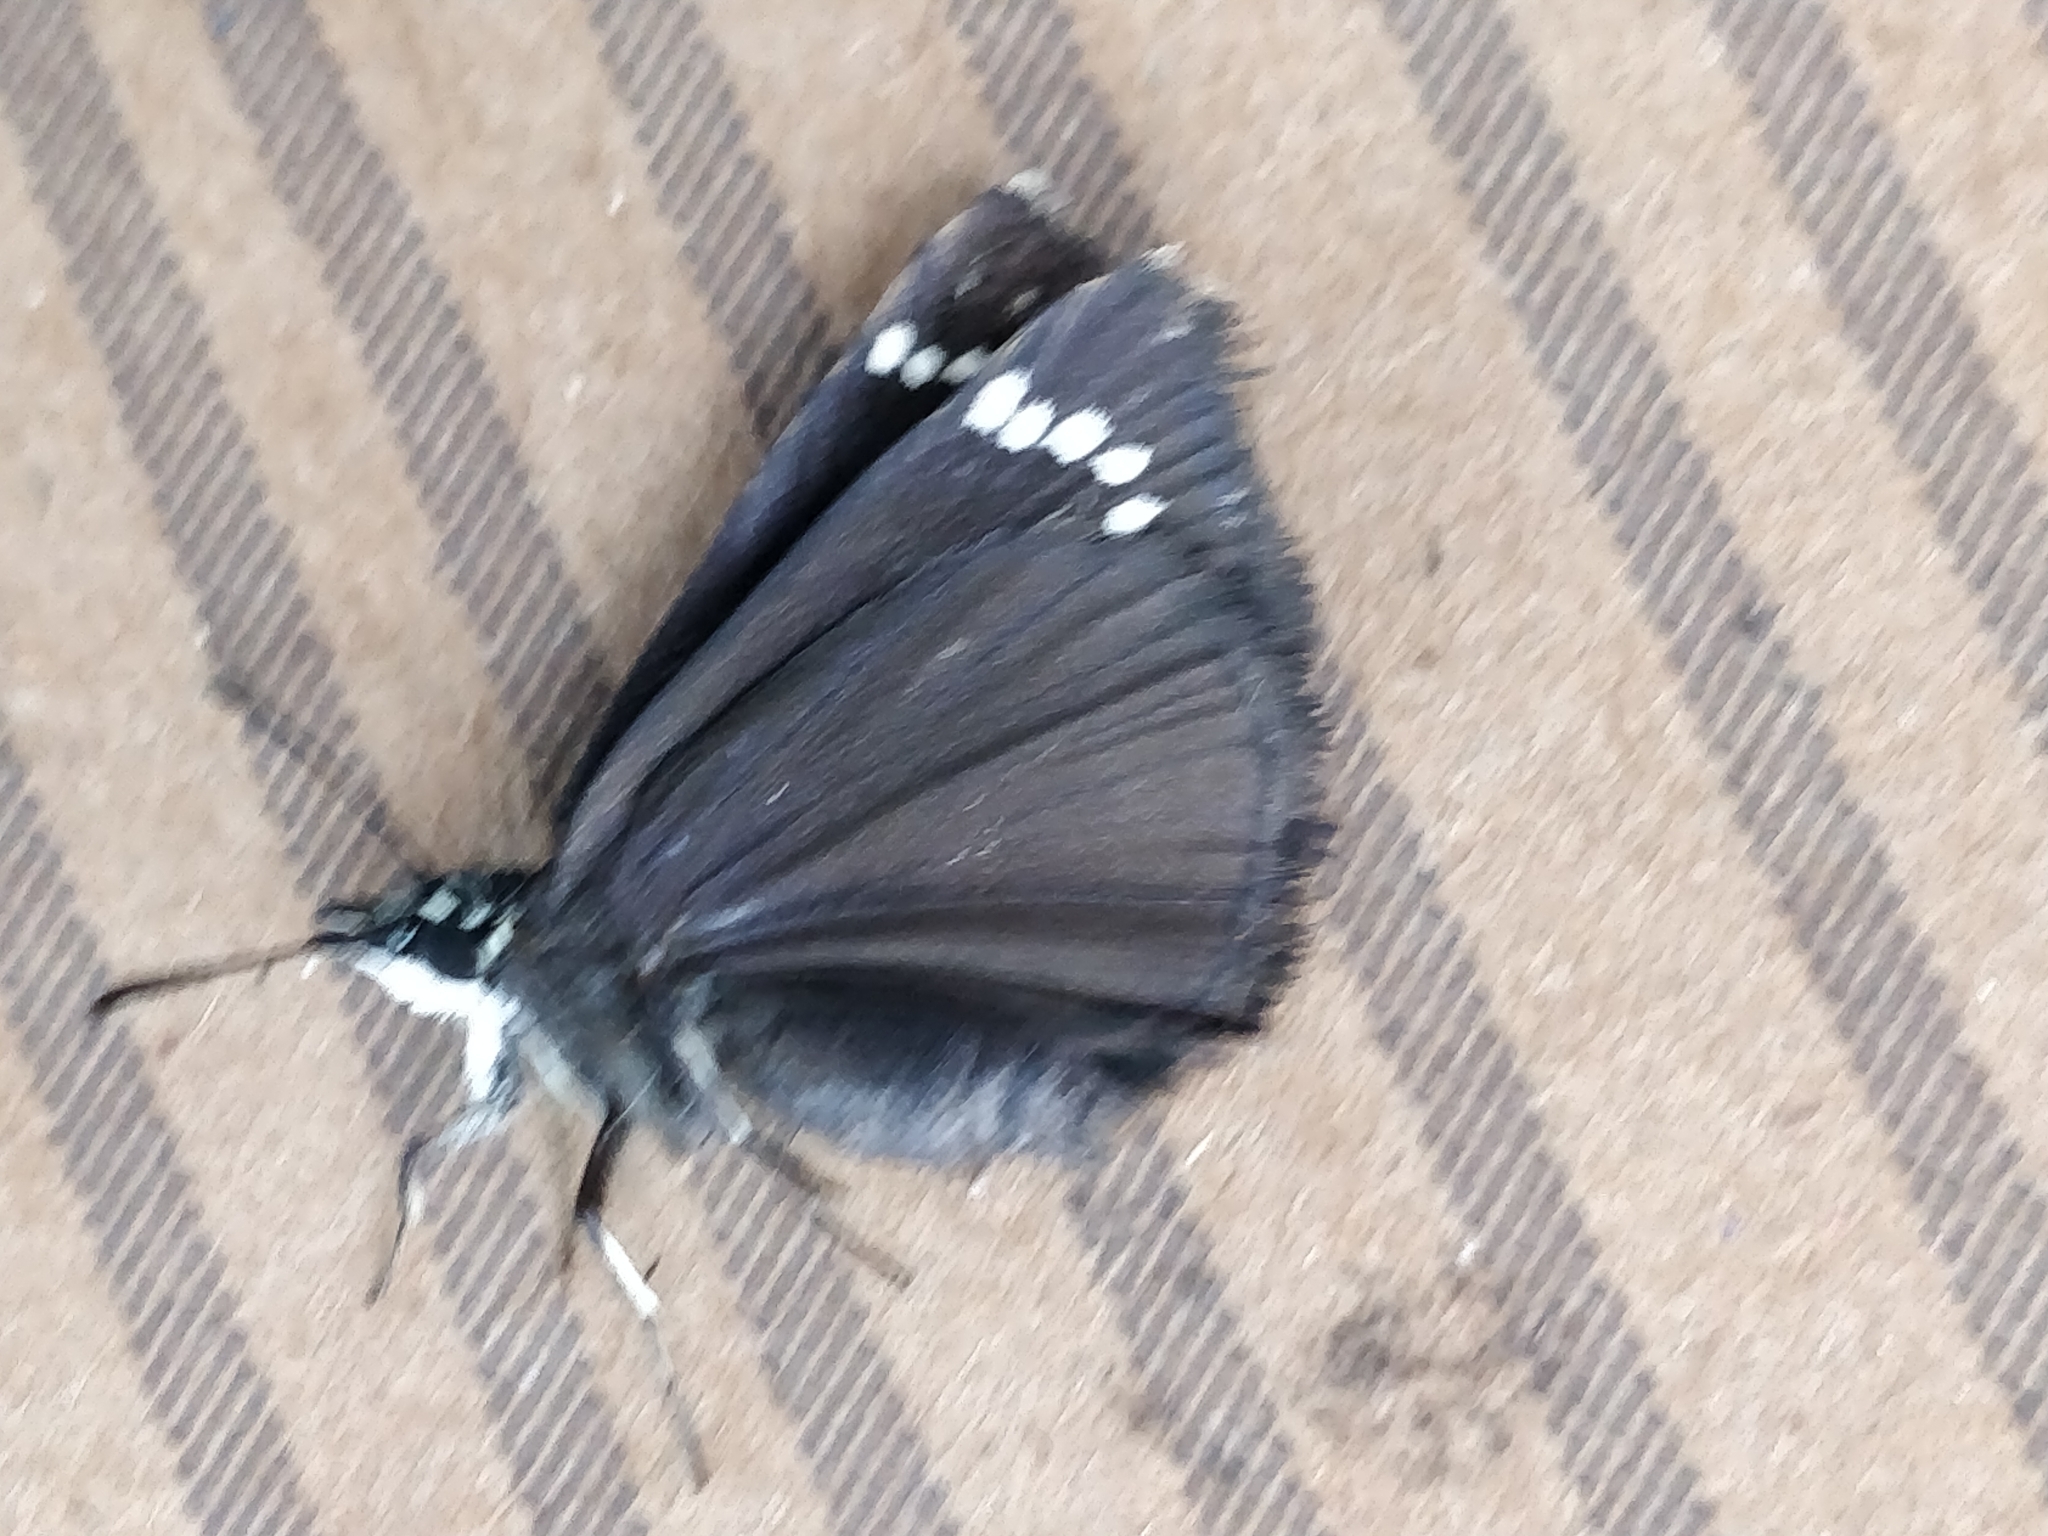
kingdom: Animalia
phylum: Arthropoda
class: Insecta
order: Lepidoptera
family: Hesperiidae
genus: Pholisora
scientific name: Pholisora catullus
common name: Common sootywing
